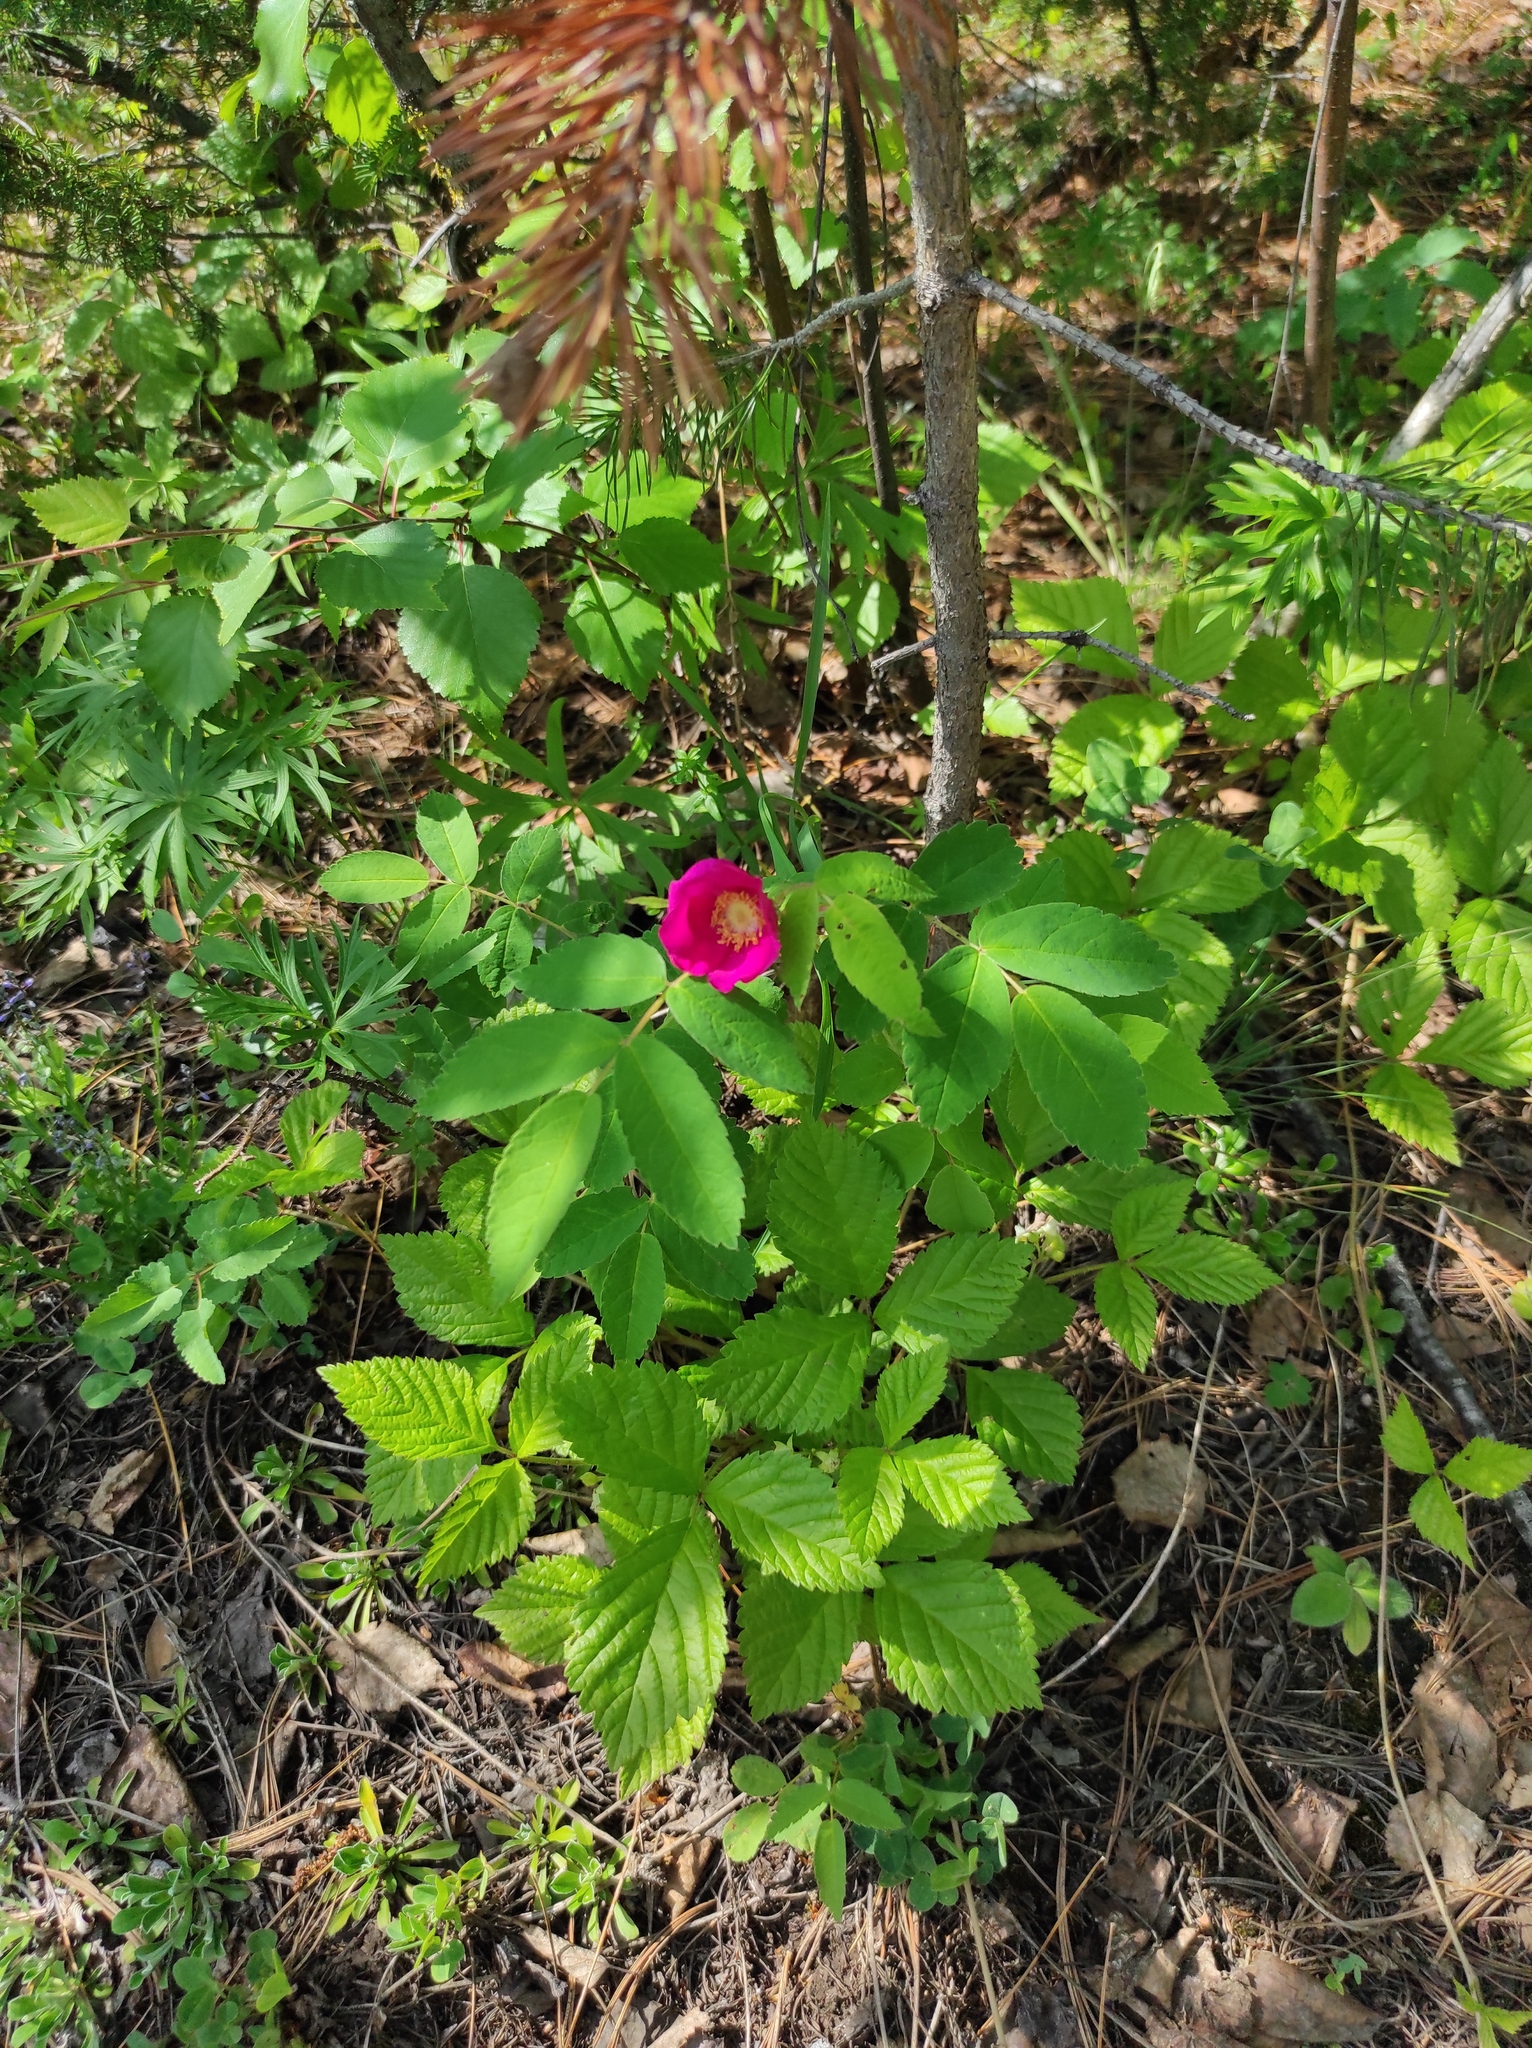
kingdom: Plantae
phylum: Tracheophyta
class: Magnoliopsida
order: Ranunculales
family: Ranunculaceae
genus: Pulsatilla
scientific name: Pulsatilla patens
